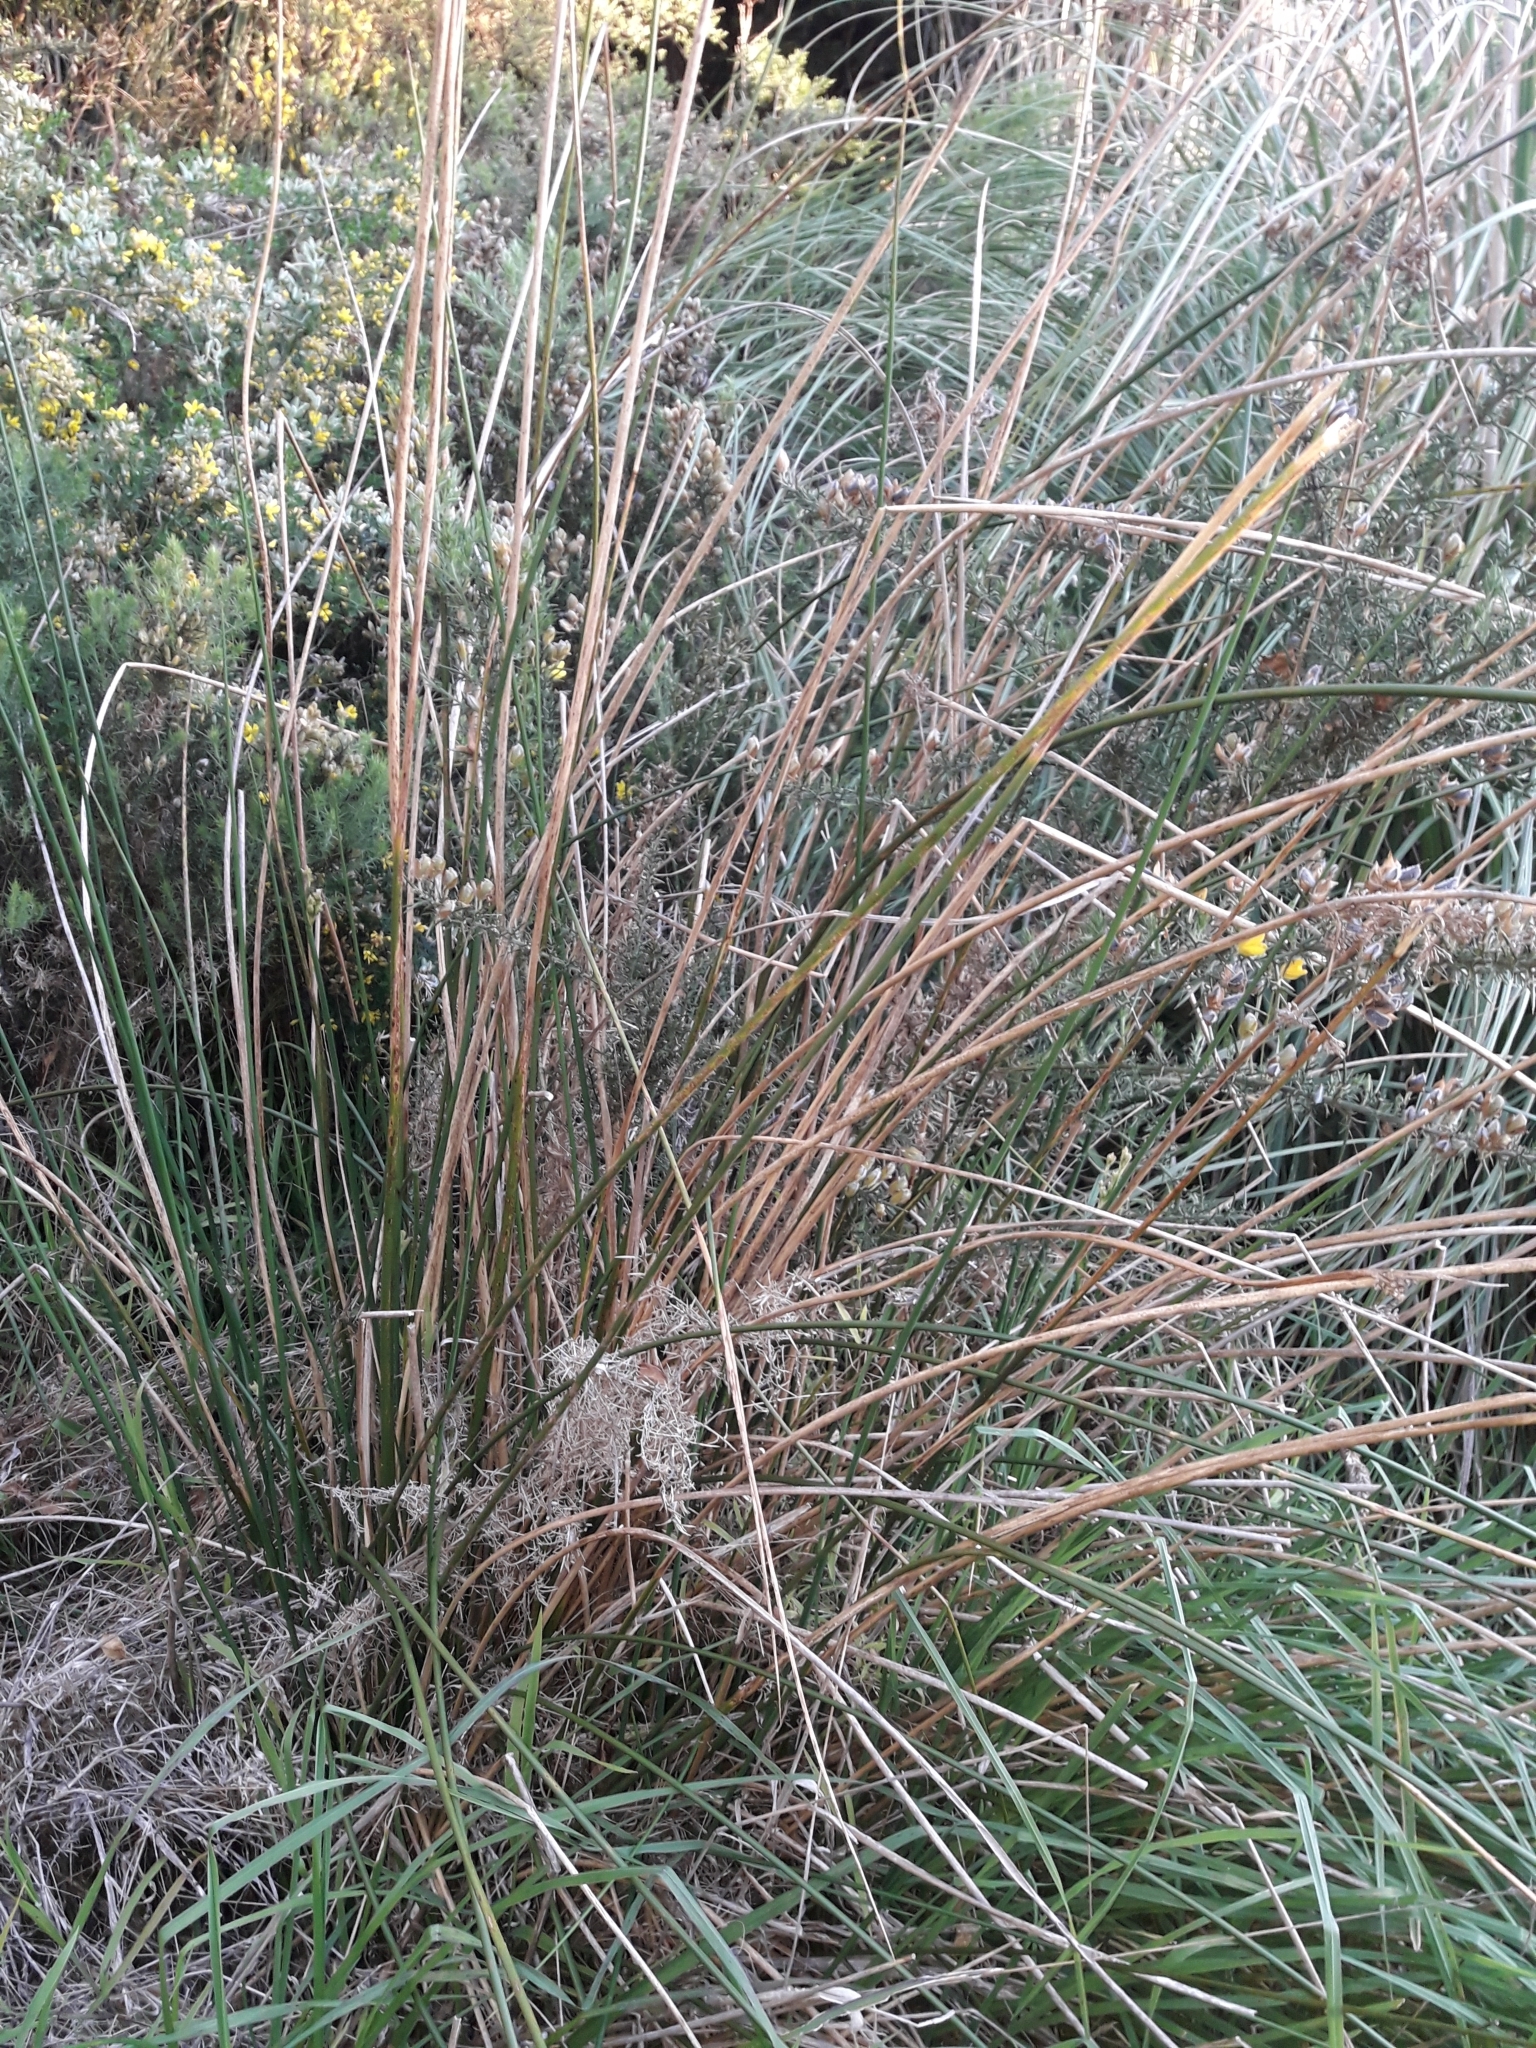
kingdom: Plantae
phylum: Tracheophyta
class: Liliopsida
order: Poales
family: Juncaceae
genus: Juncus
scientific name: Juncus pallidus
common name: Great soft-rush
